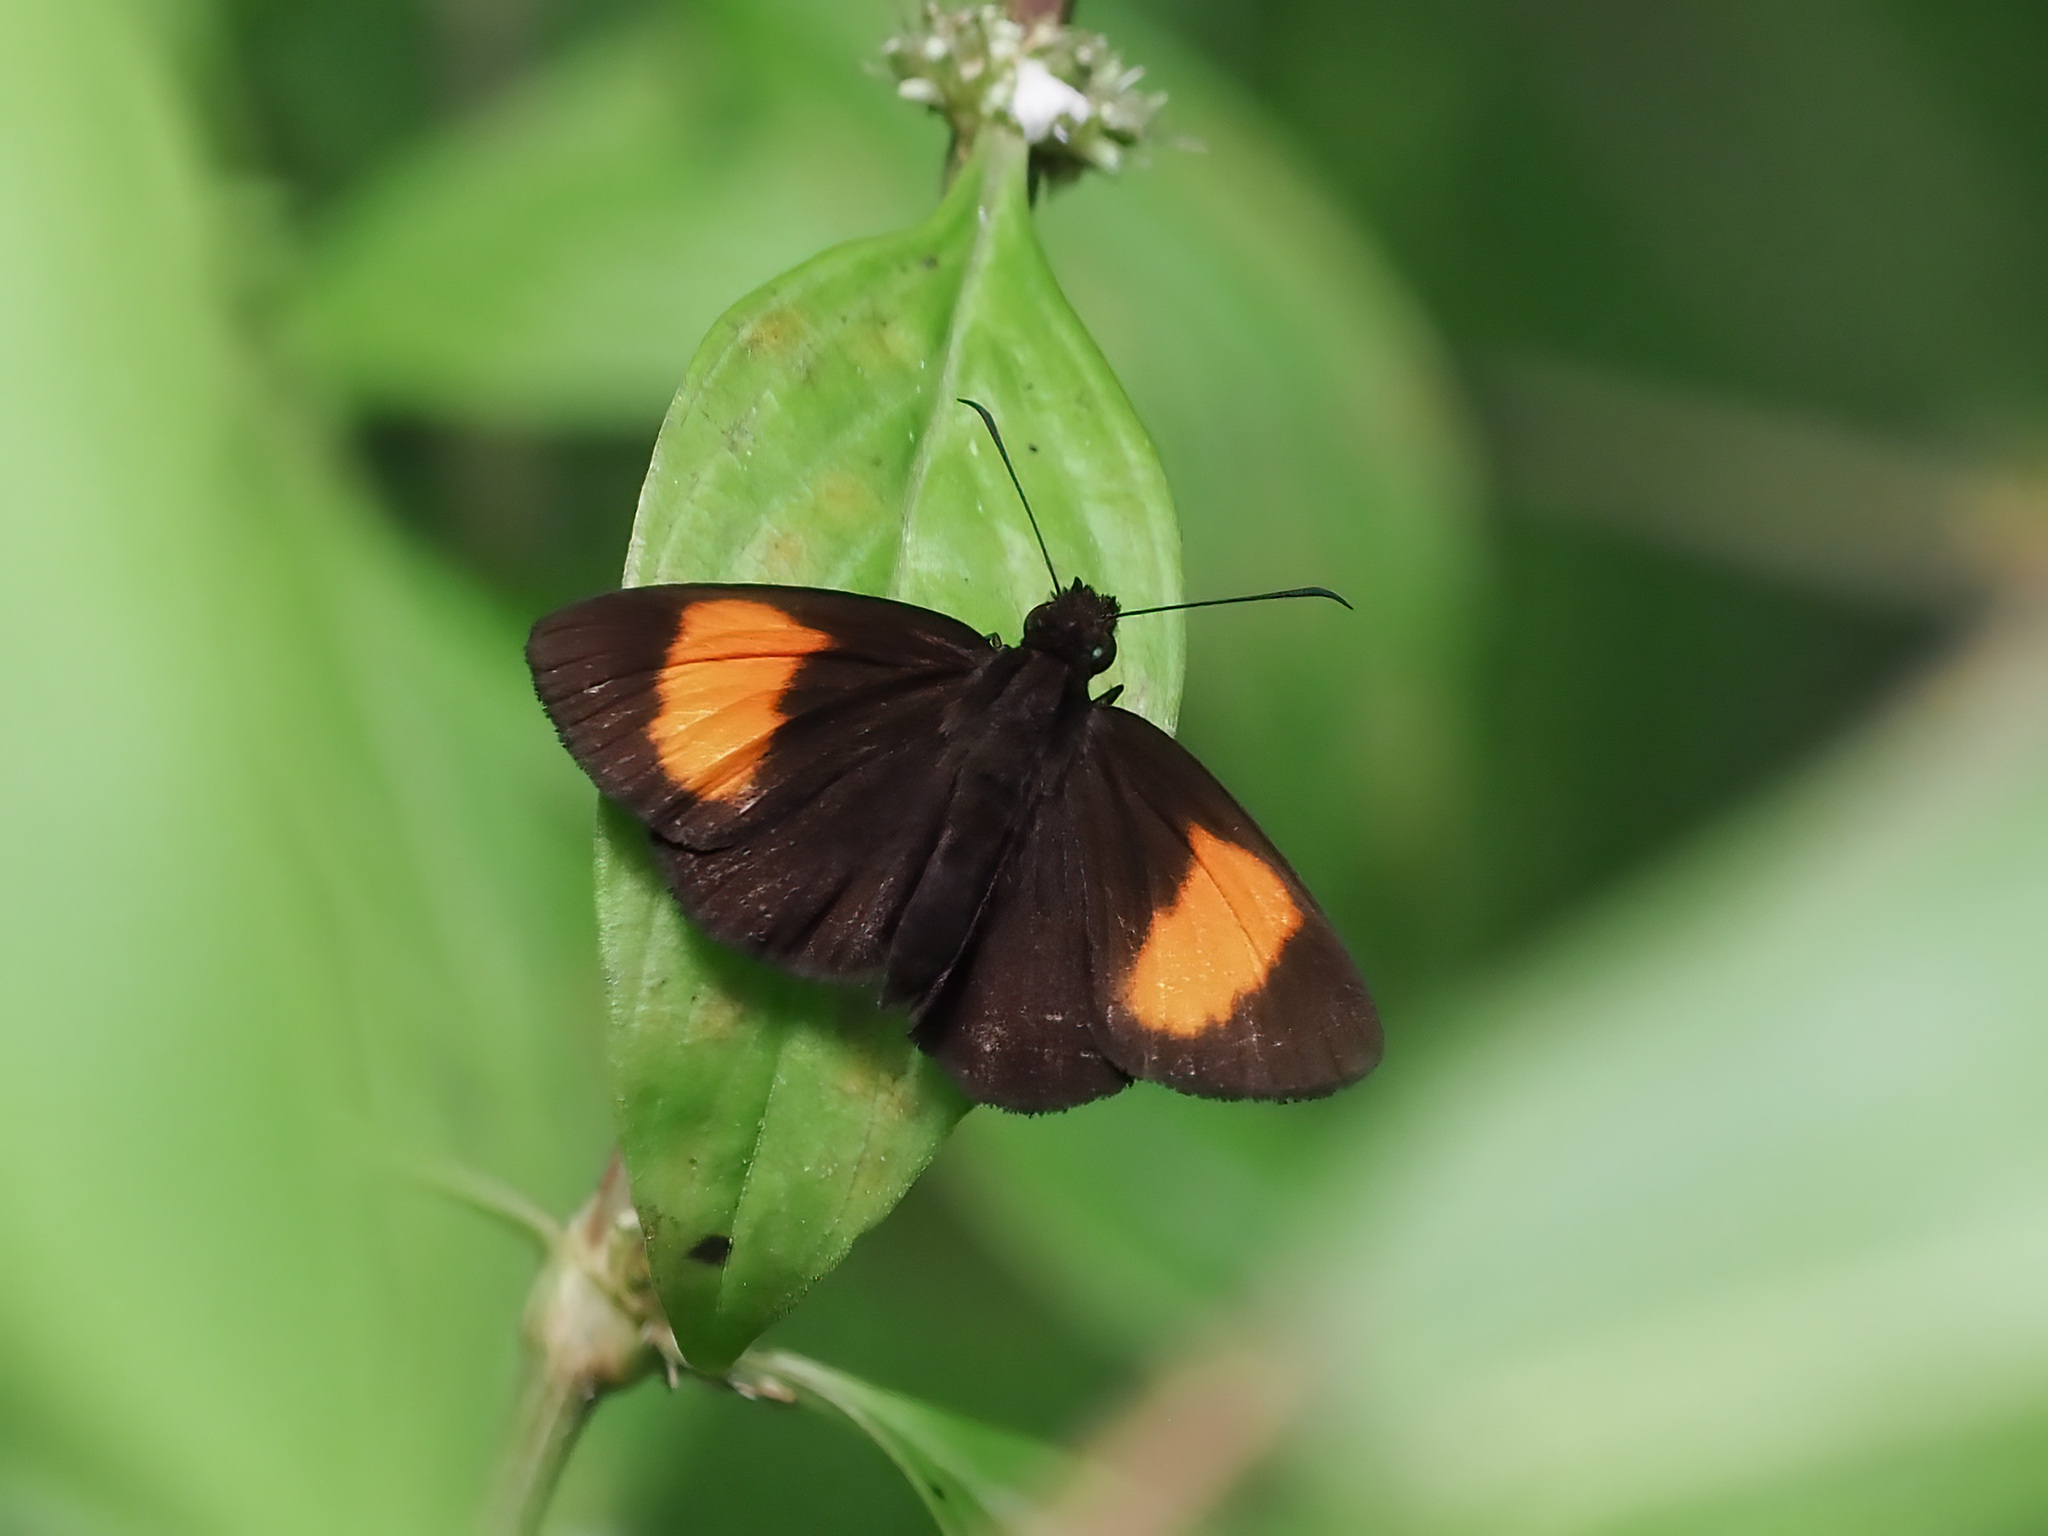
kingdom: Animalia
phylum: Arthropoda
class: Insecta
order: Lepidoptera
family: Hesperiidae
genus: Koruthaialos
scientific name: Koruthaialos rubecula
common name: Narrow-banded velvet bob
